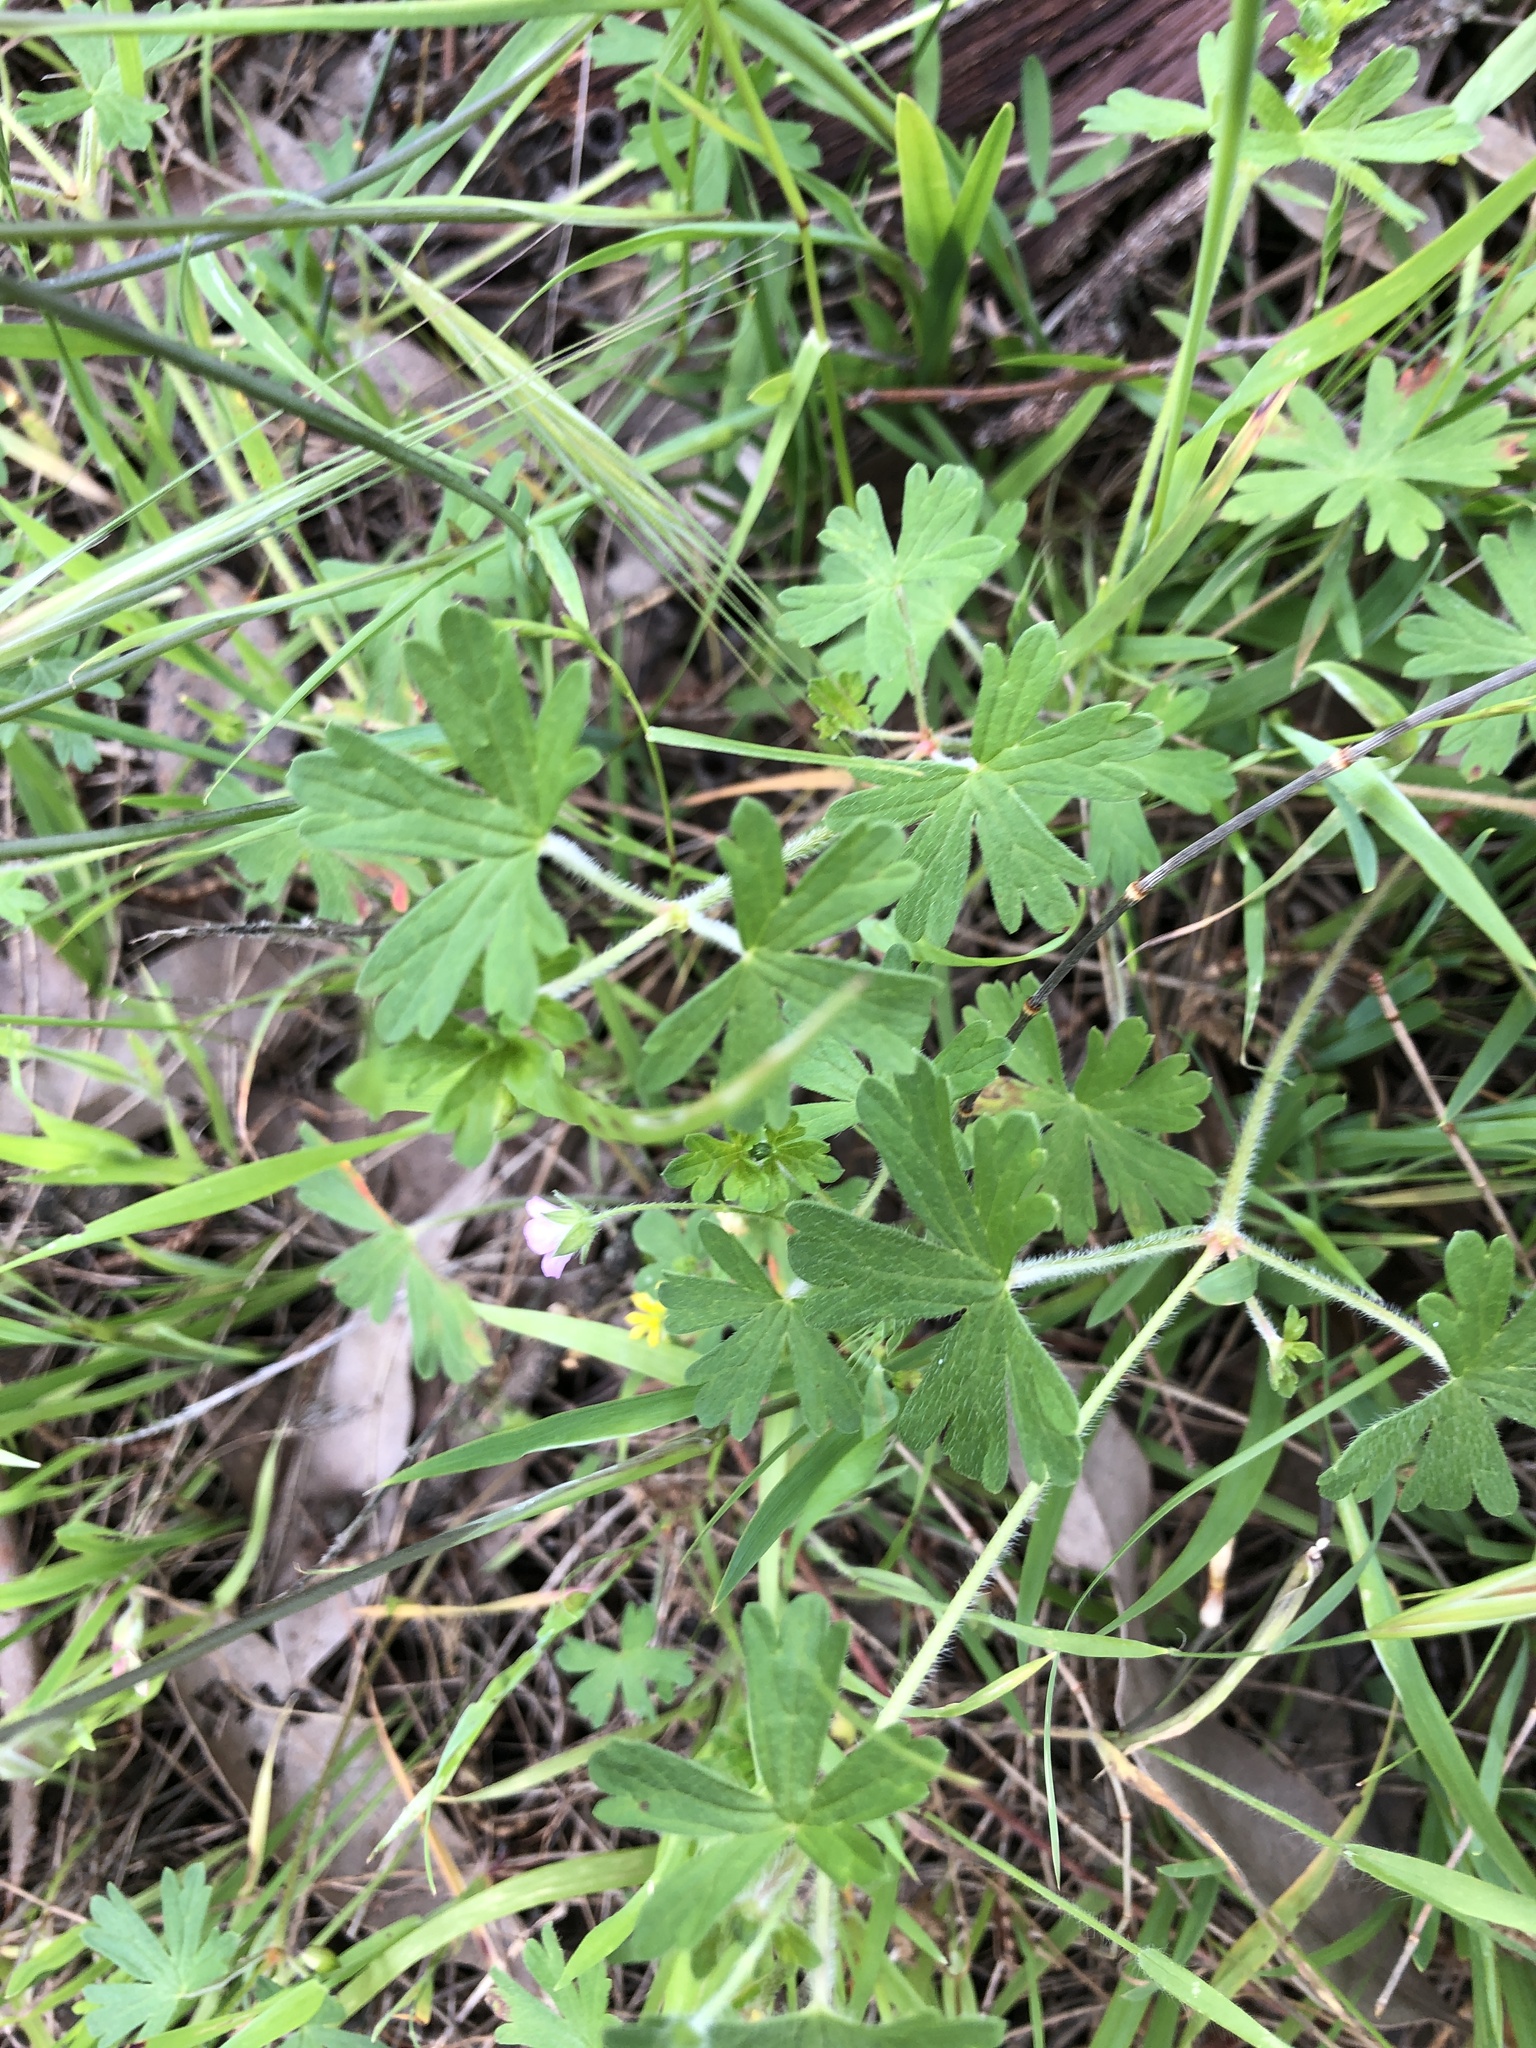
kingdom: Plantae
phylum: Tracheophyta
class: Magnoliopsida
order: Geraniales
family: Geraniaceae
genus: Geranium
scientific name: Geranium solanderi
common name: Solander's geranium
